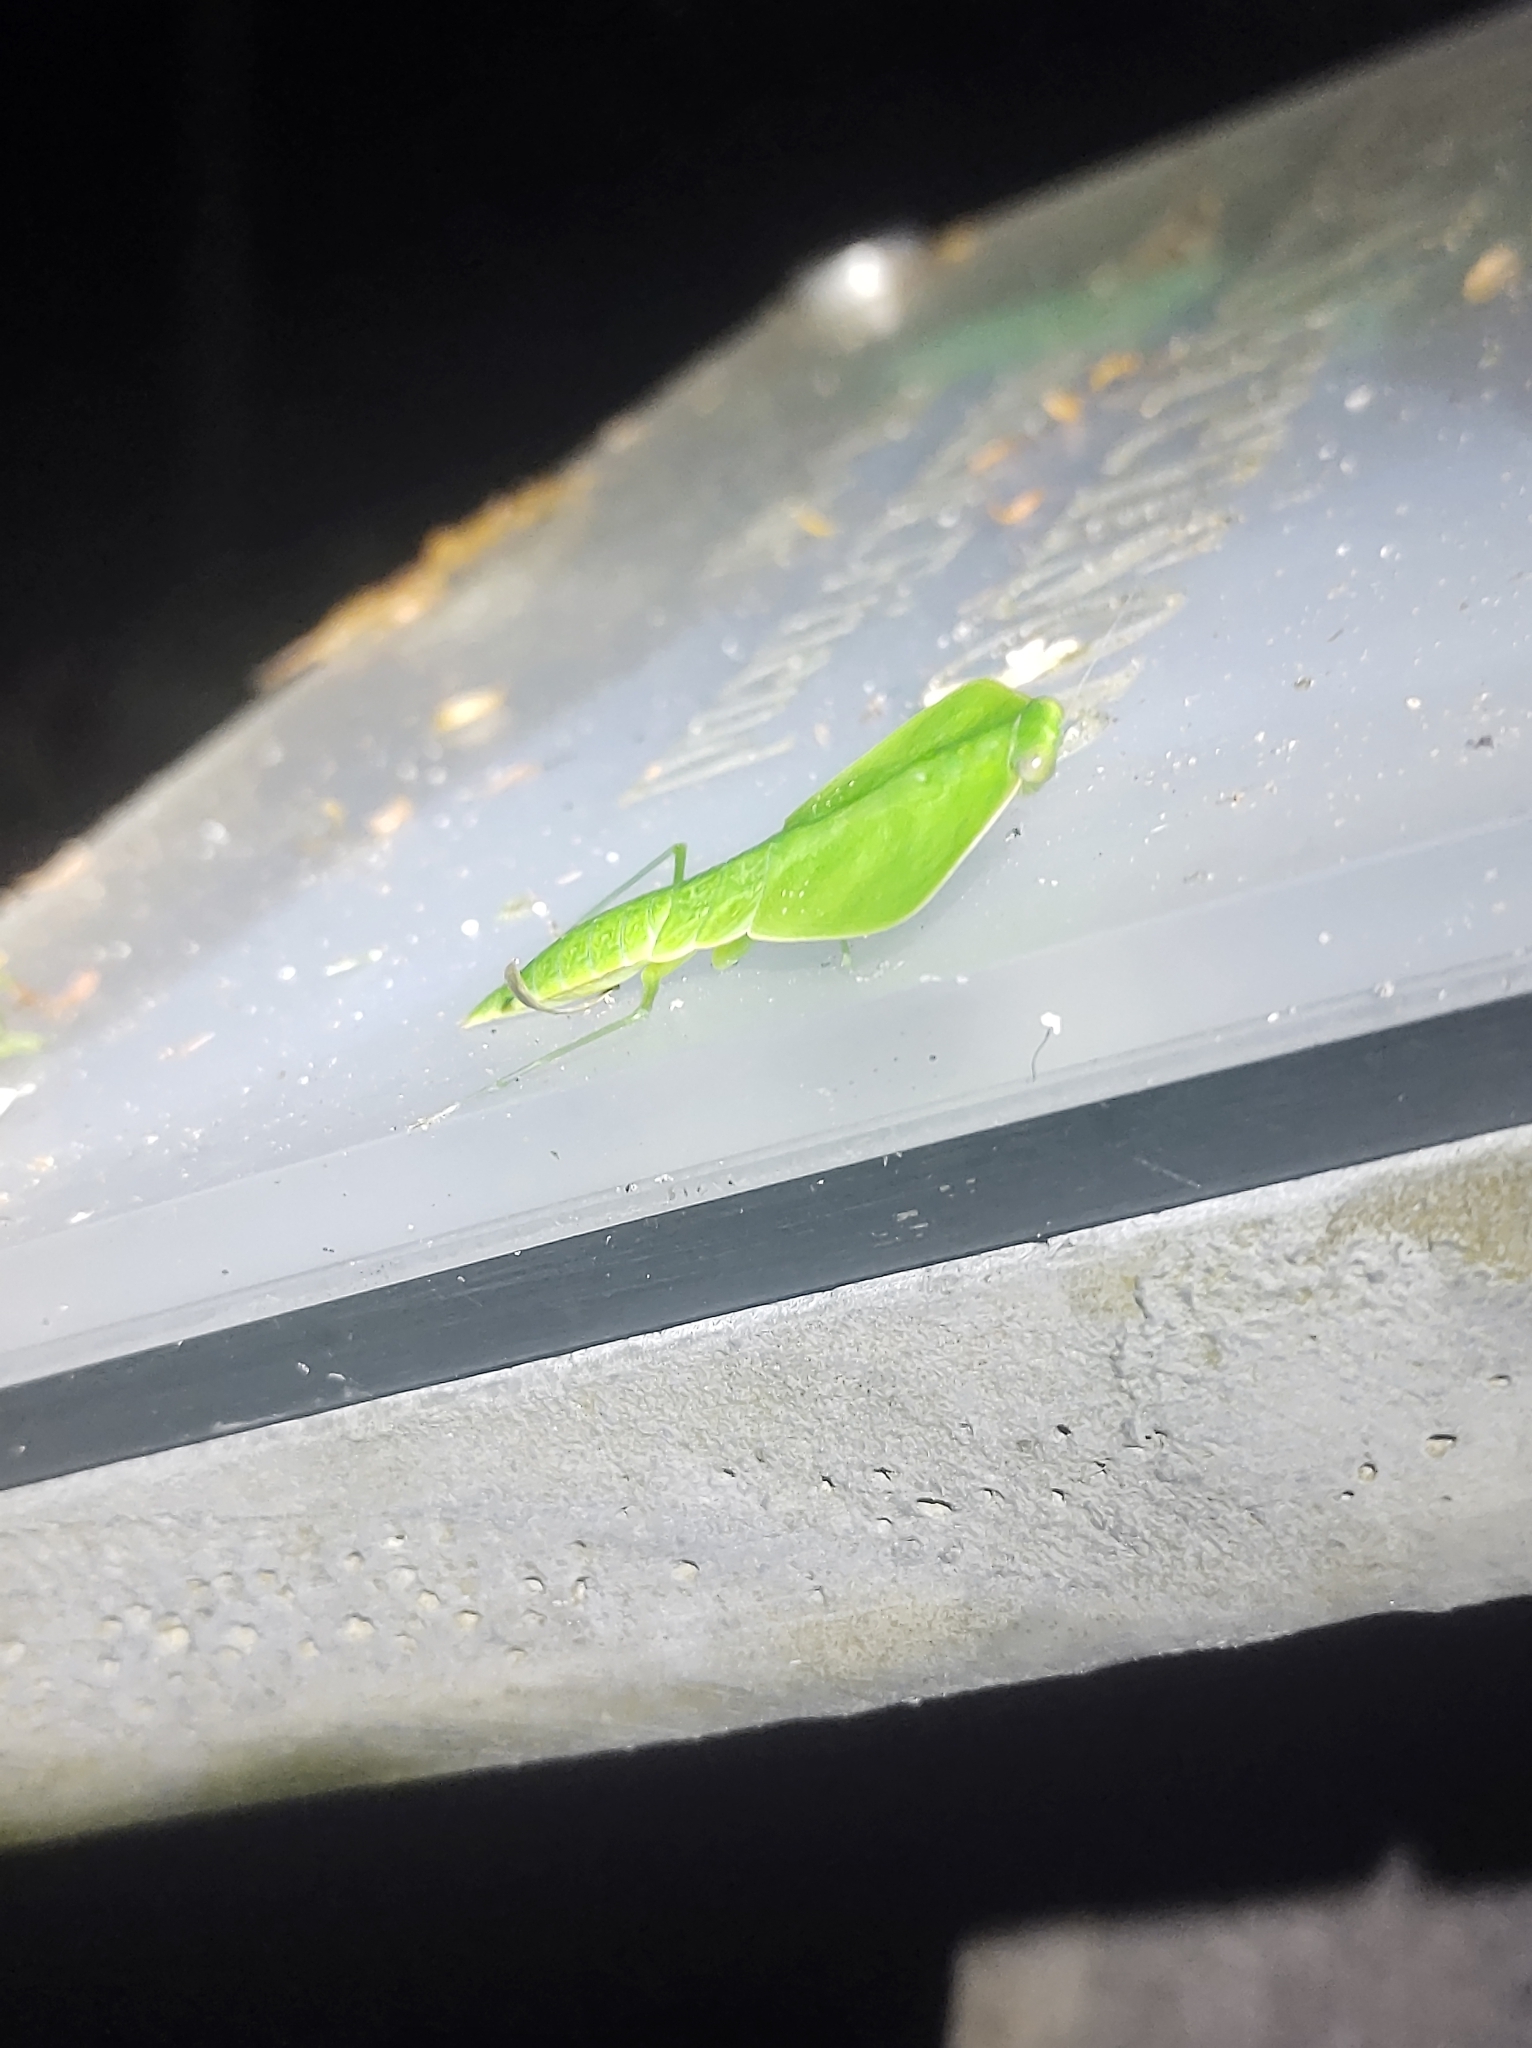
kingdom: Animalia
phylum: Arthropoda
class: Insecta
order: Mantodea
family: Mantidae
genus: Choeradodis
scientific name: Choeradodis rhombicollis
